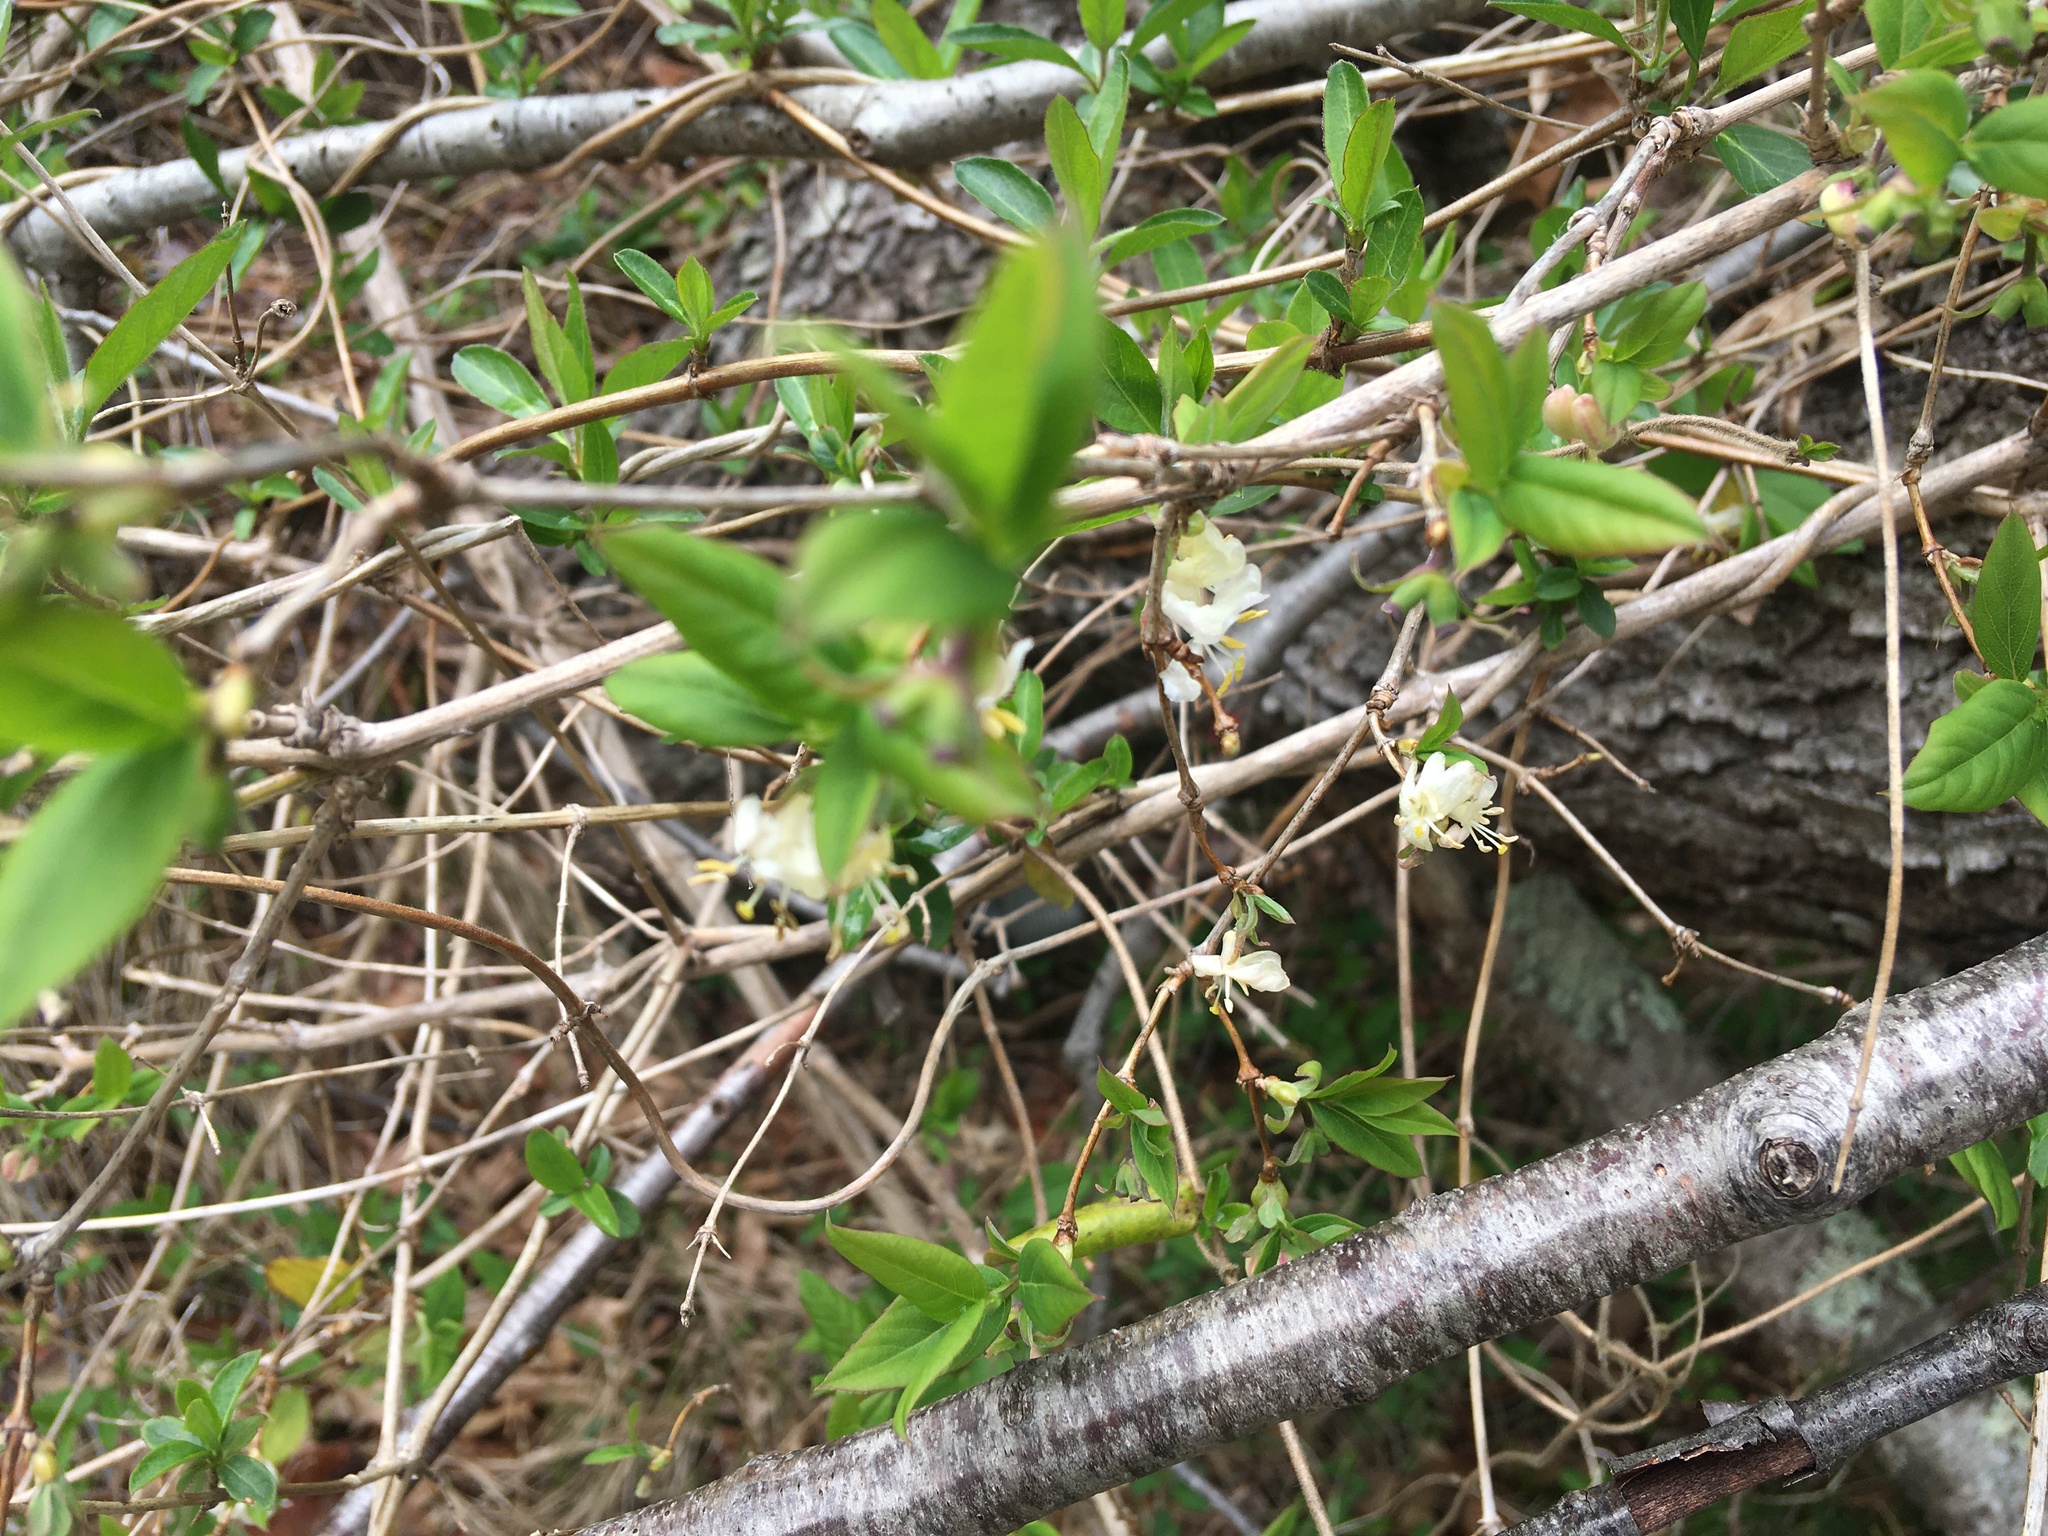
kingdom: Plantae
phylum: Tracheophyta
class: Magnoliopsida
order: Dipsacales
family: Caprifoliaceae
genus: Lonicera
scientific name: Lonicera fragrantissima
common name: Fragrant honeysuckle
